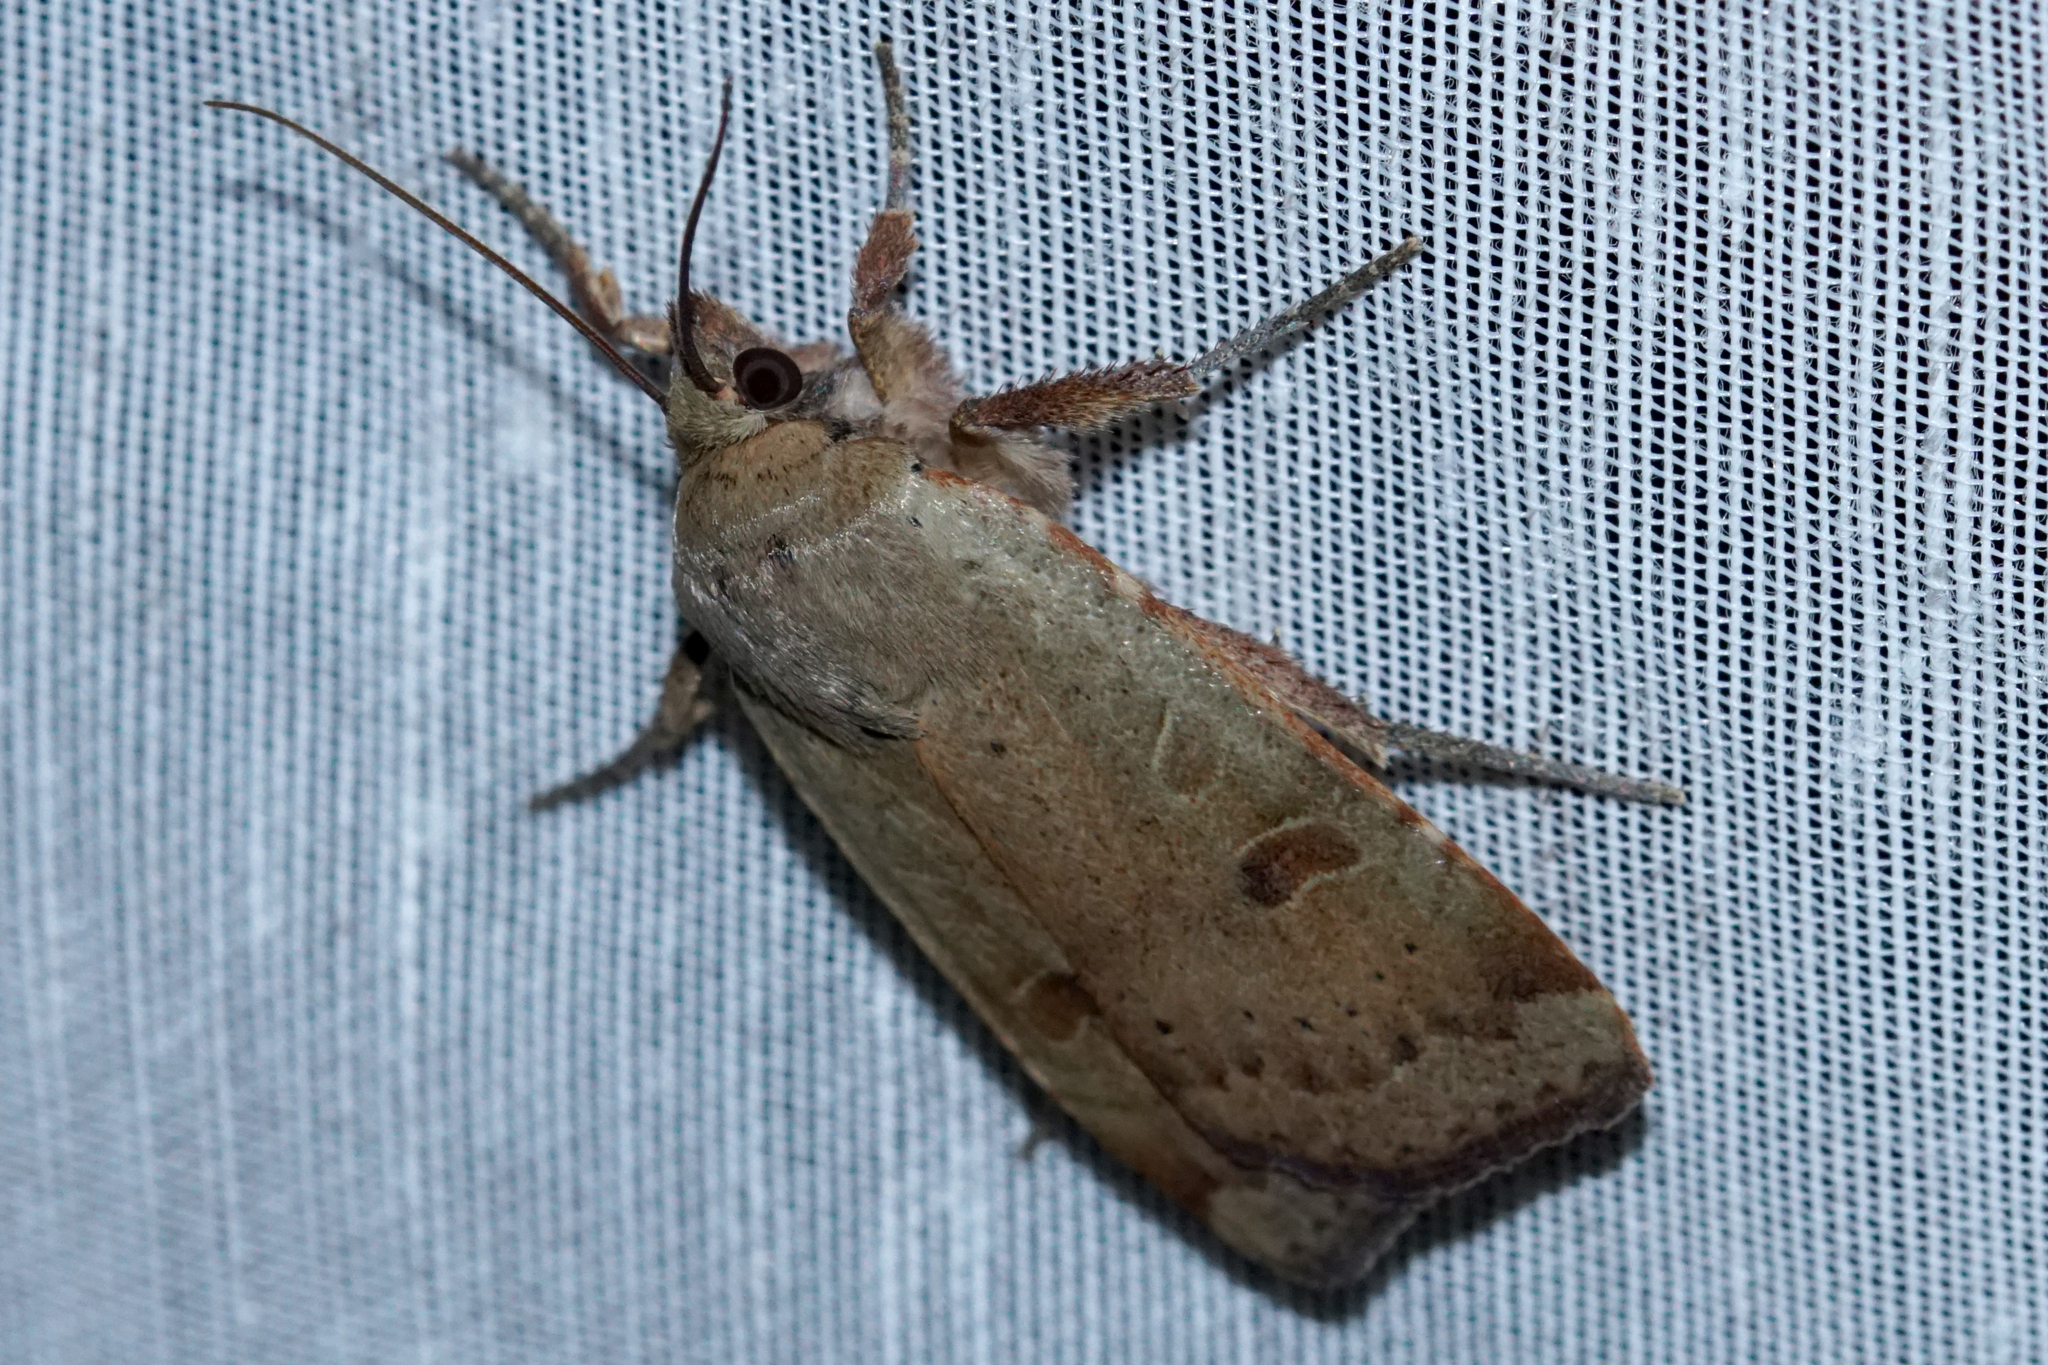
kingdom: Animalia
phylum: Arthropoda
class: Insecta
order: Lepidoptera
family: Noctuidae
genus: Noctua
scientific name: Noctua comes
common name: Lesser yellow underwing
